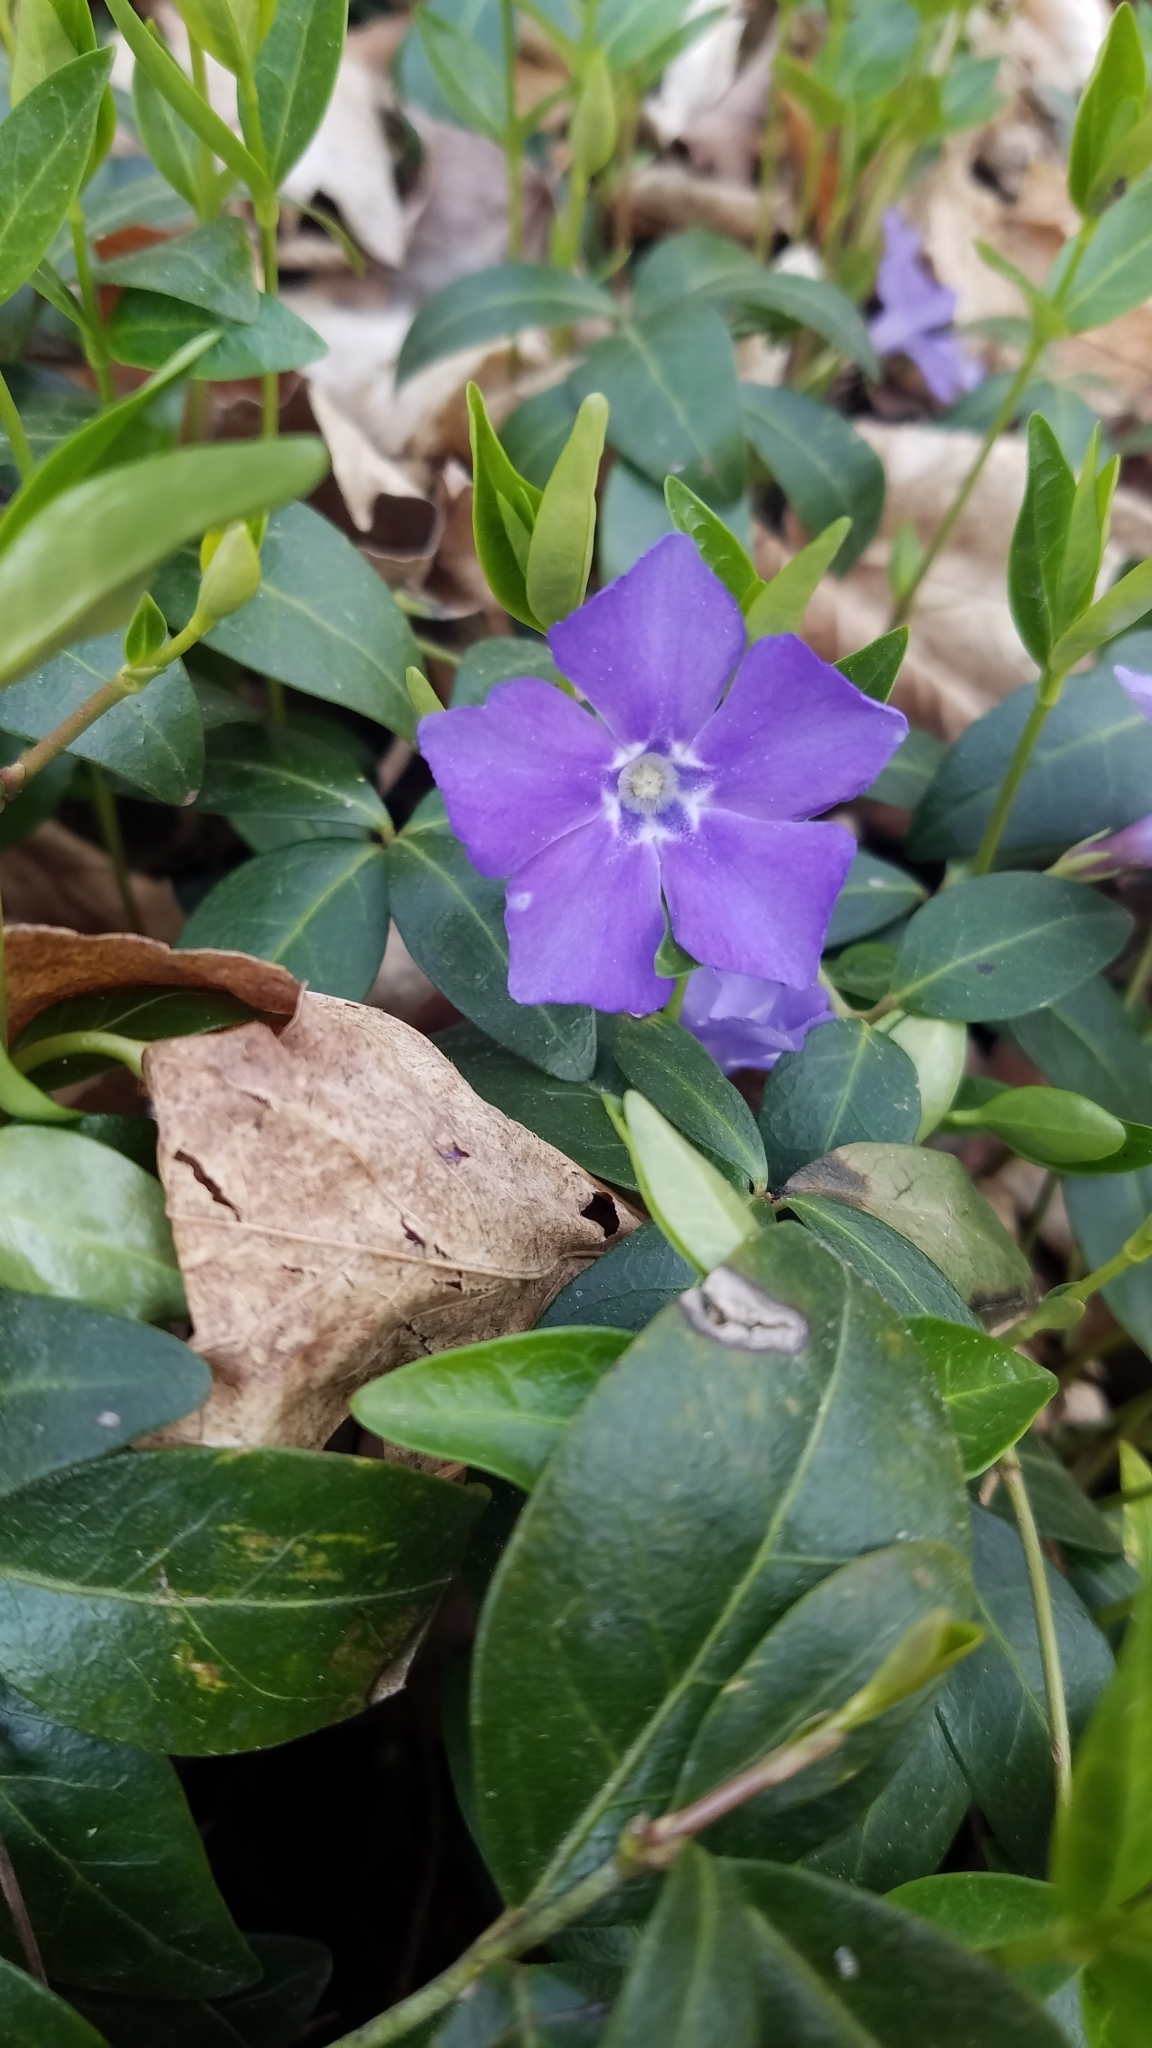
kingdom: Plantae
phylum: Tracheophyta
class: Magnoliopsida
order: Gentianales
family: Apocynaceae
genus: Vinca
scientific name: Vinca minor
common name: Lesser periwinkle
